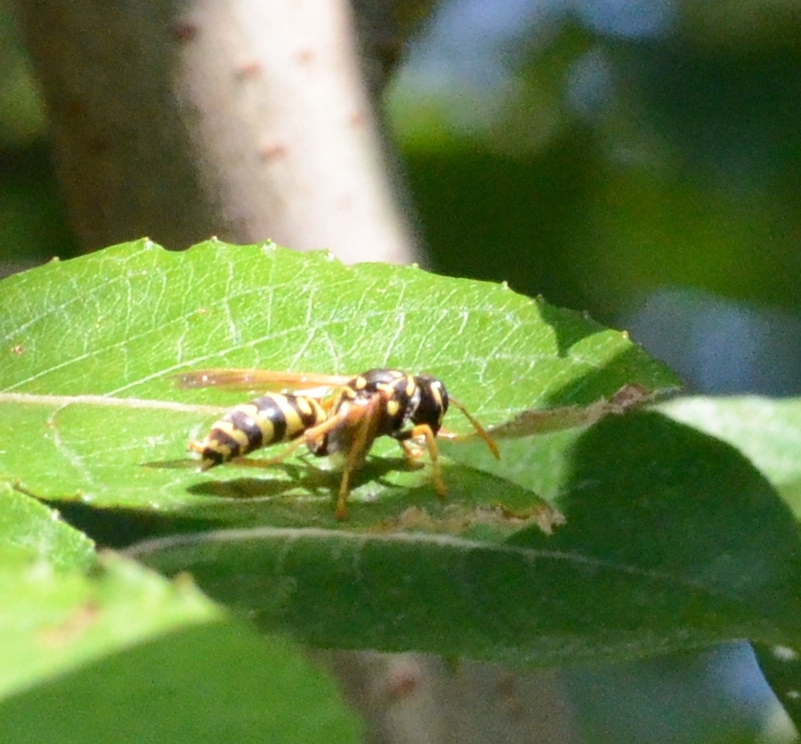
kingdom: Animalia
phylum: Arthropoda
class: Insecta
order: Hymenoptera
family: Eumenidae
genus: Polistes
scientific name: Polistes dominula
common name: Paper wasp
